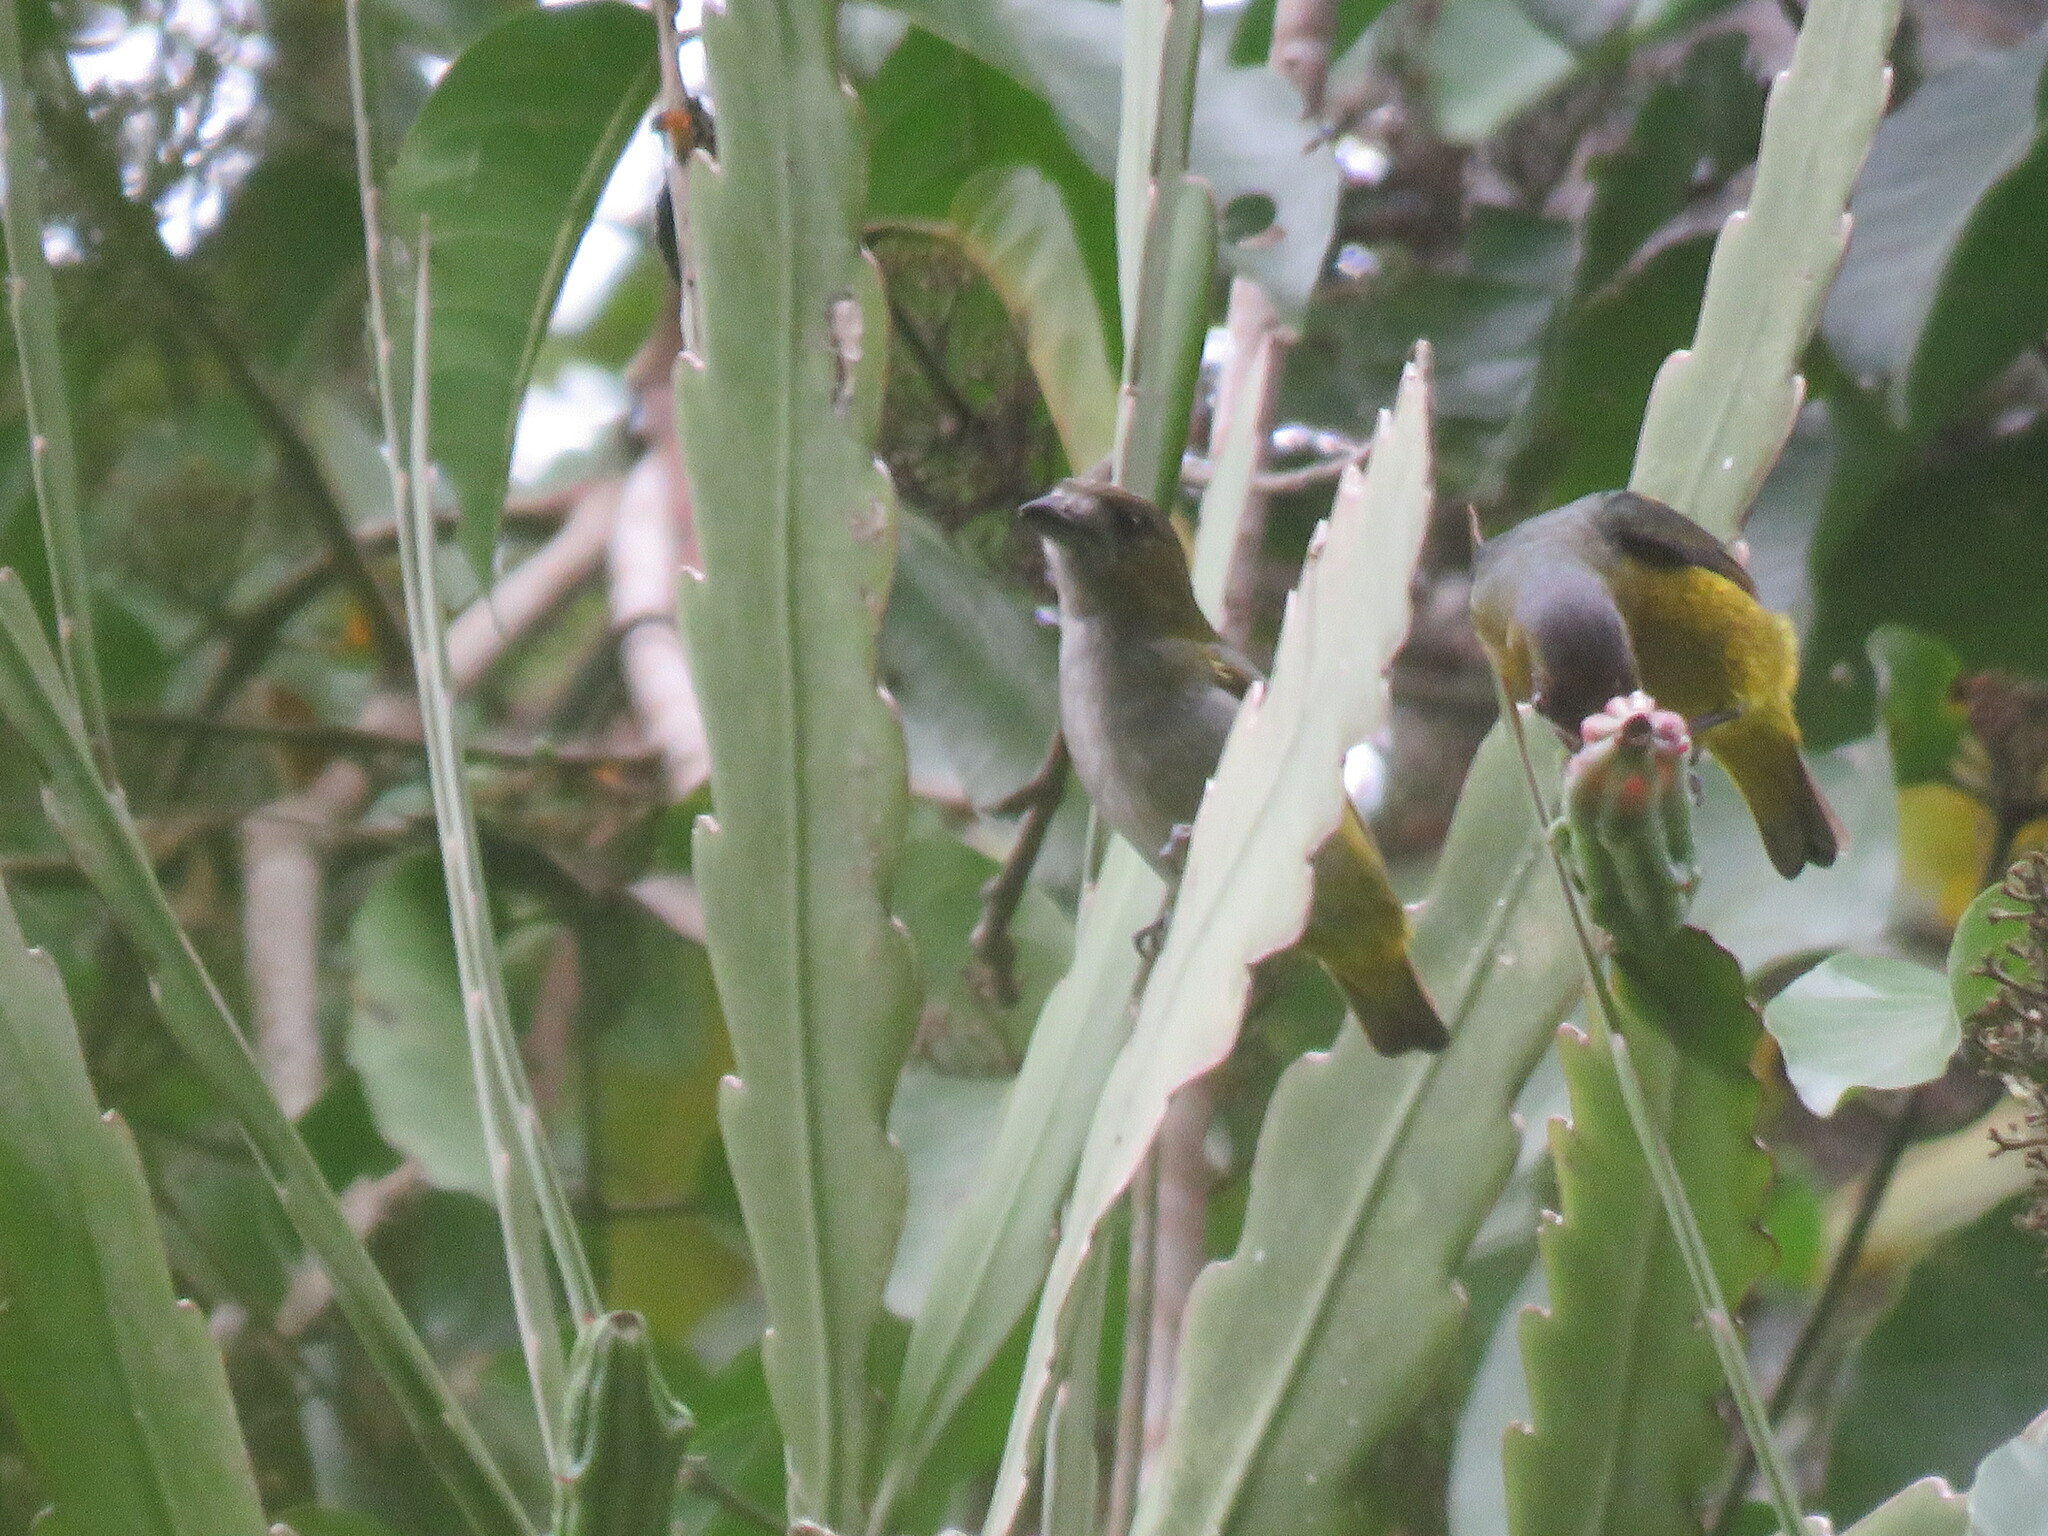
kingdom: Animalia
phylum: Chordata
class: Aves
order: Passeriformes
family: Fringillidae
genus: Euphonia
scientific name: Euphonia chrysopasta
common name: White-lored euphonia
